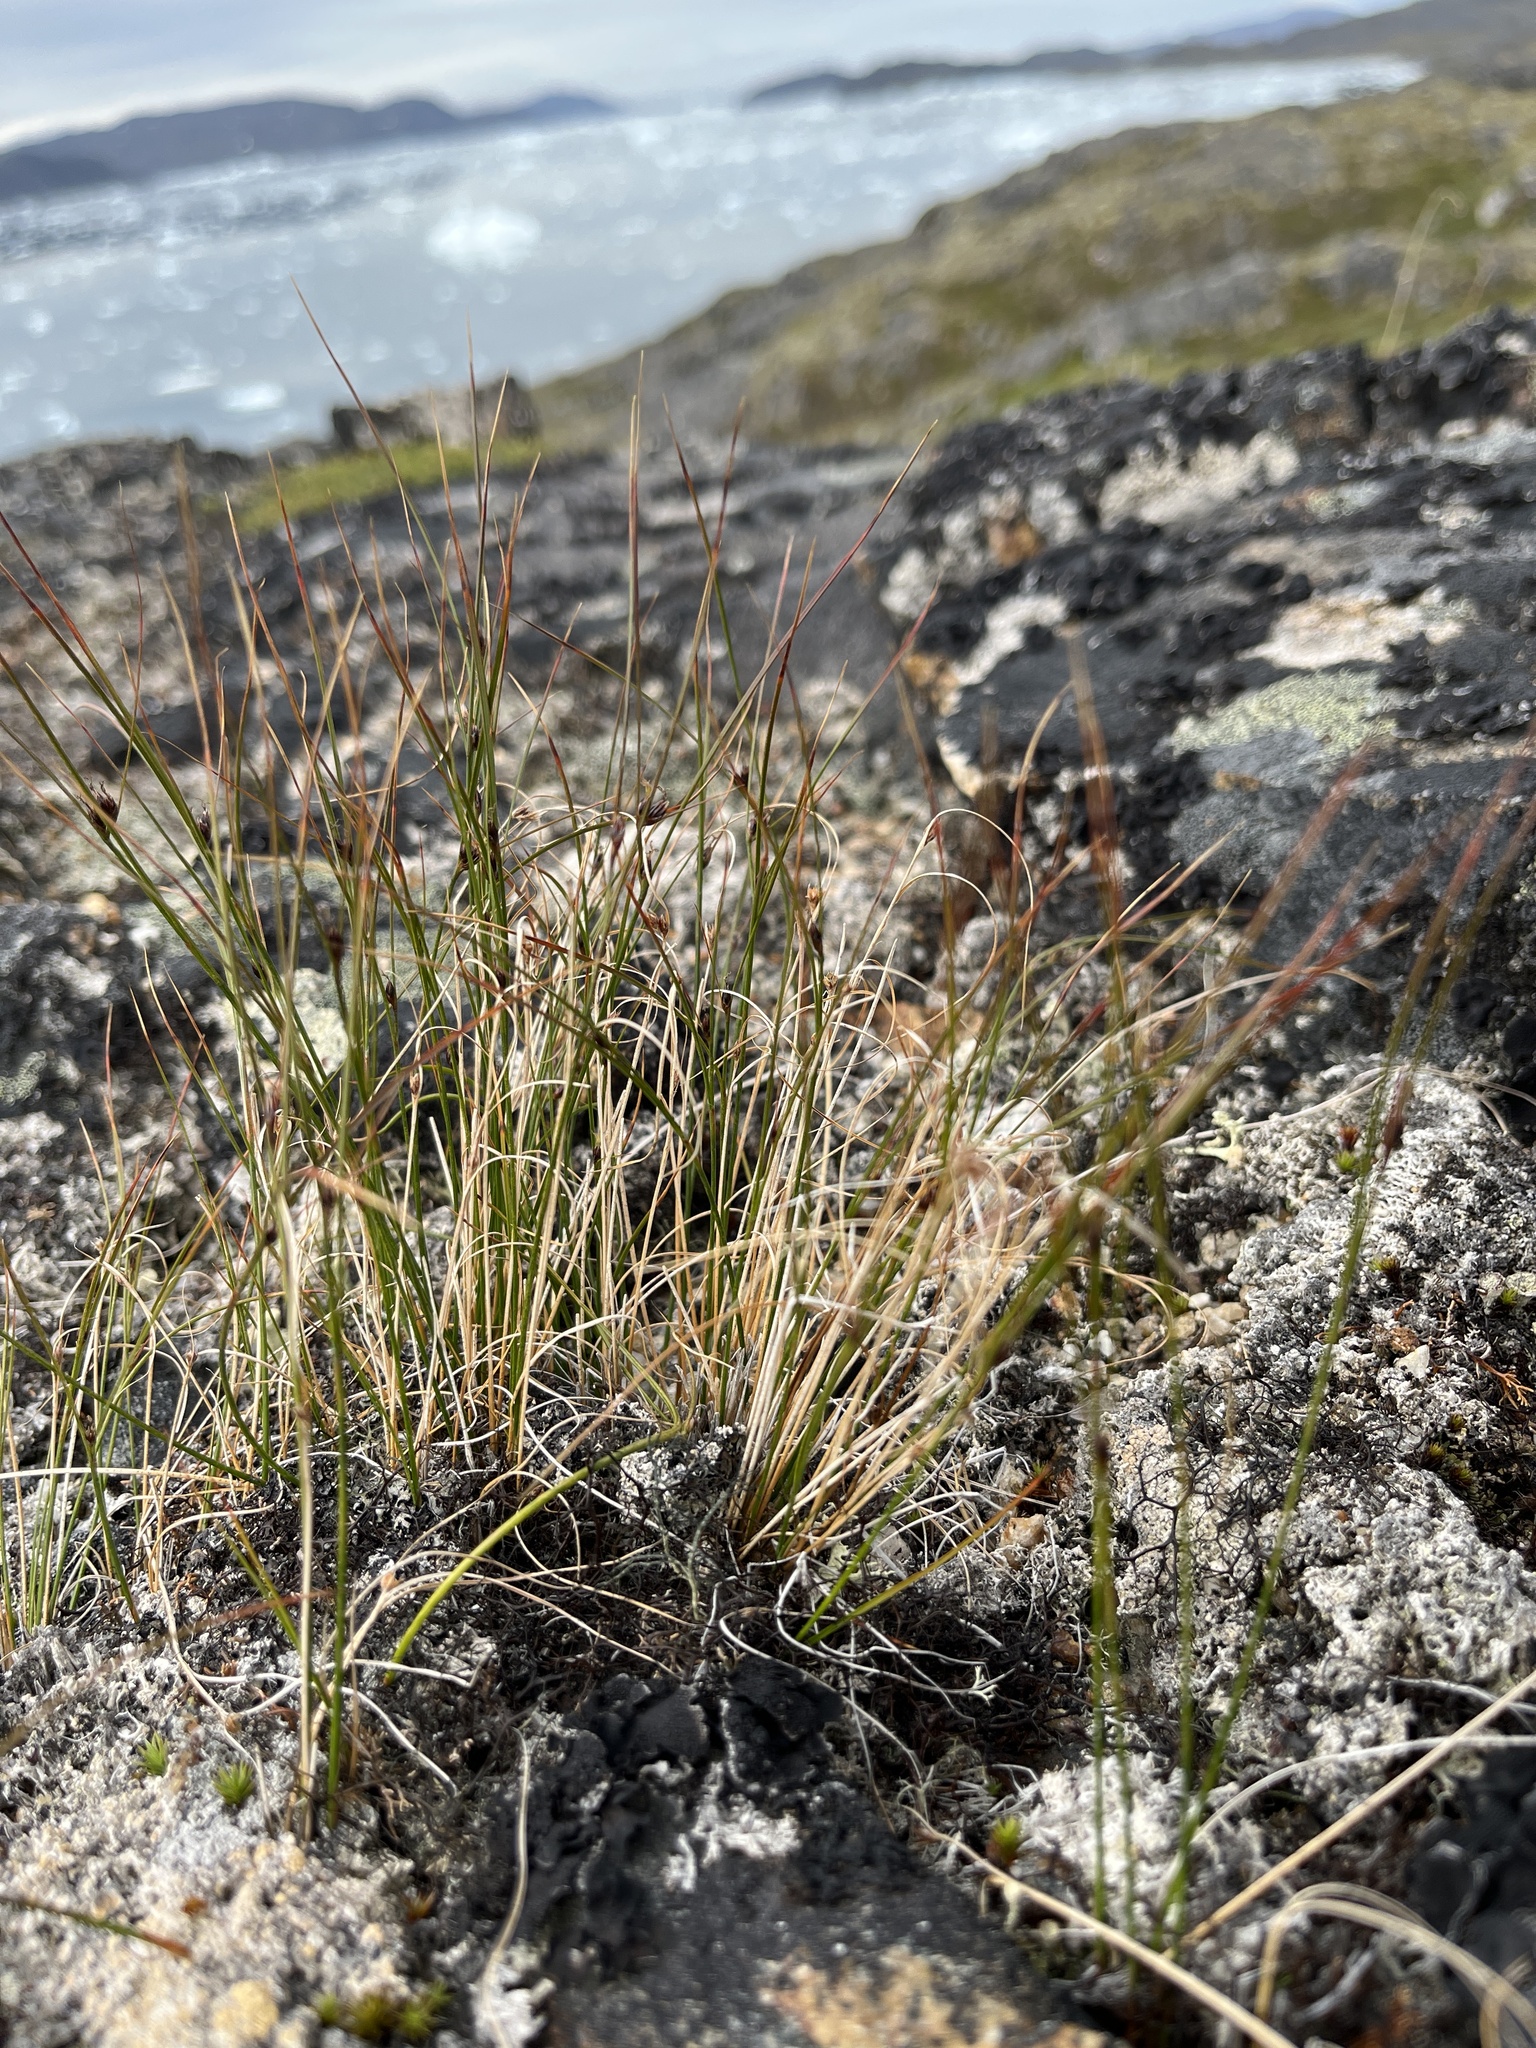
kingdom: Plantae
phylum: Tracheophyta
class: Liliopsida
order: Poales
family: Juncaceae
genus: Oreojuncus
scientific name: Oreojuncus trifidus
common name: Highland rush
